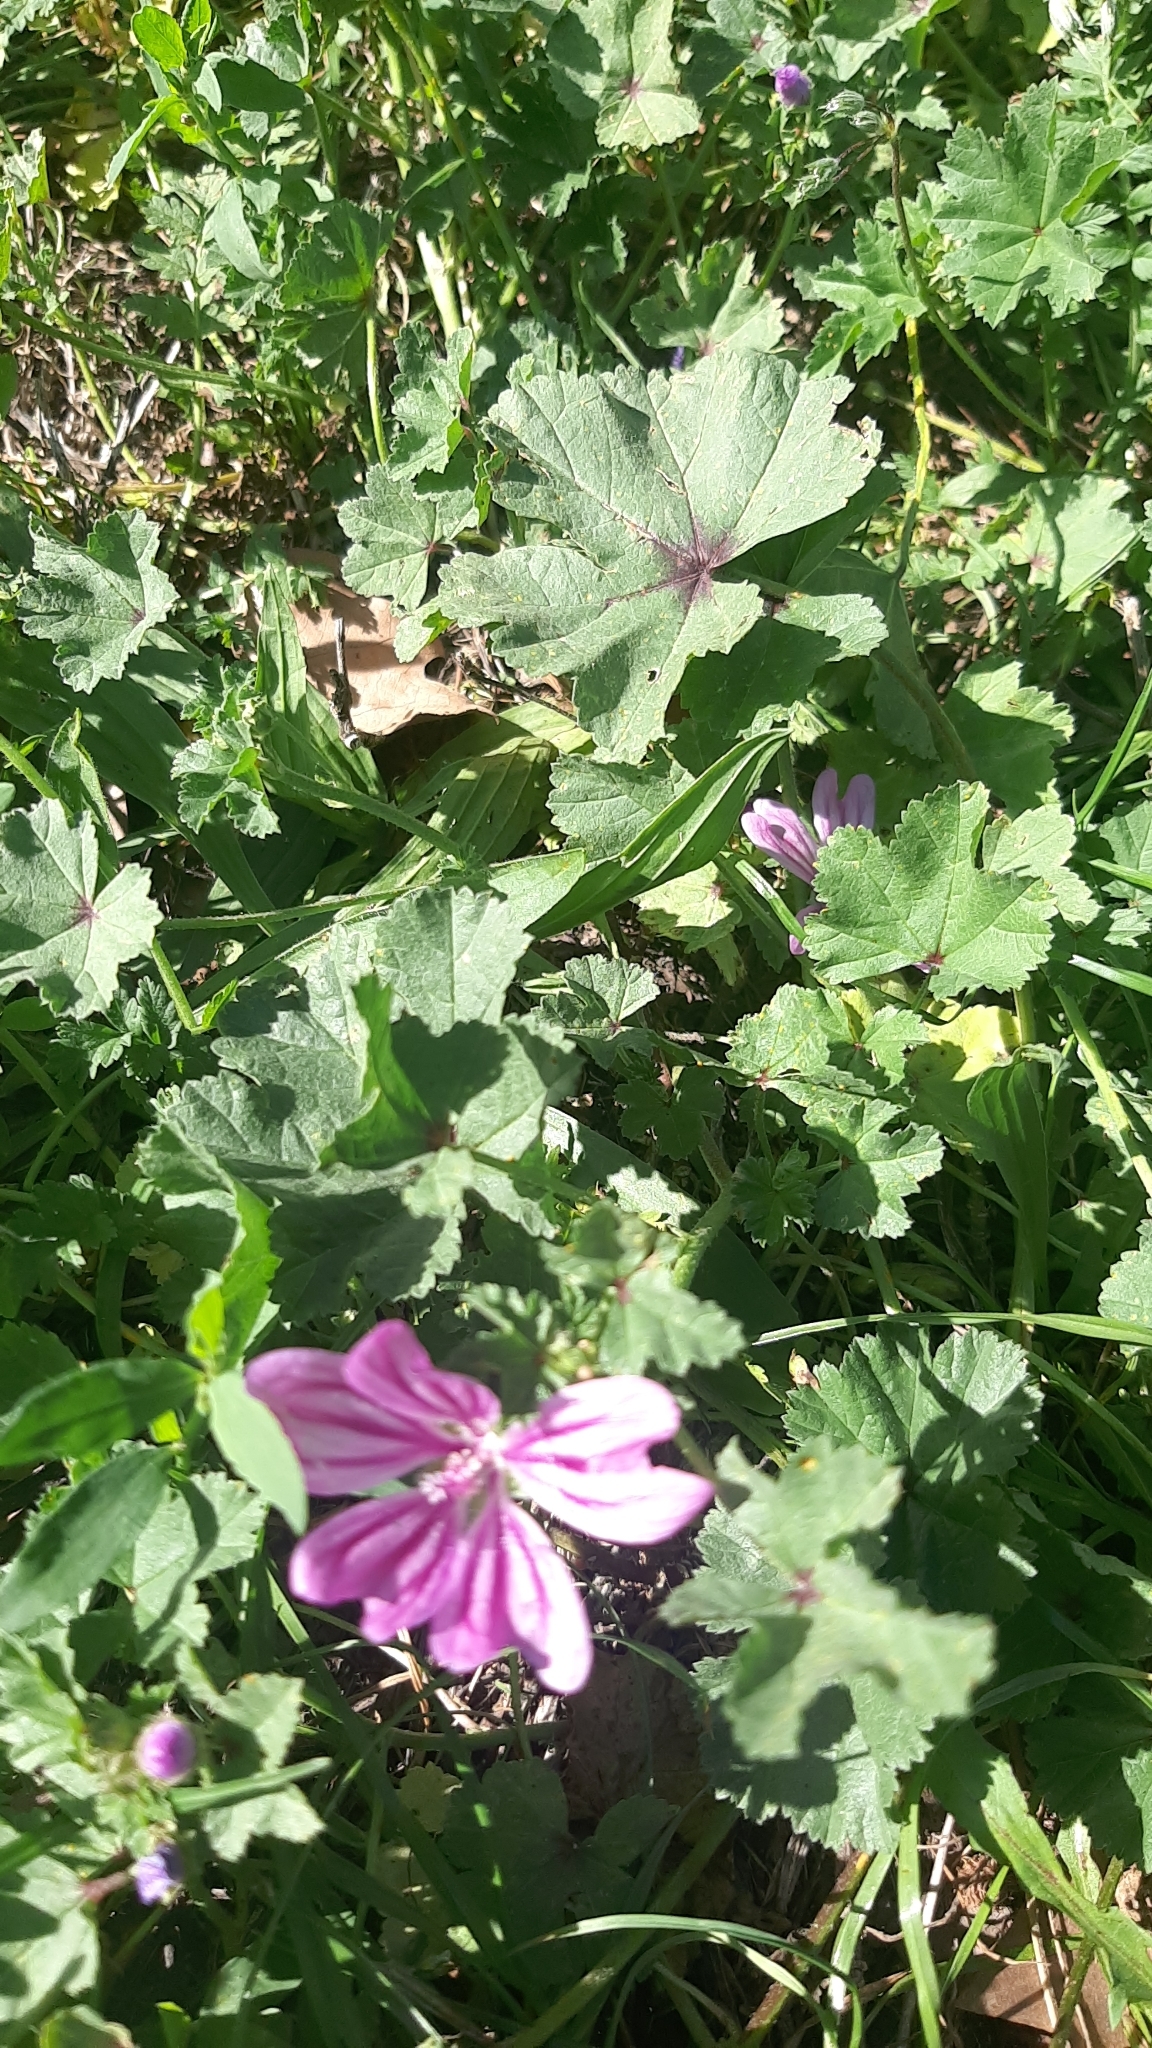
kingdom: Plantae
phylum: Tracheophyta
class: Magnoliopsida
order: Malvales
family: Malvaceae
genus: Malva
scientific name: Malva sylvestris
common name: Common mallow
